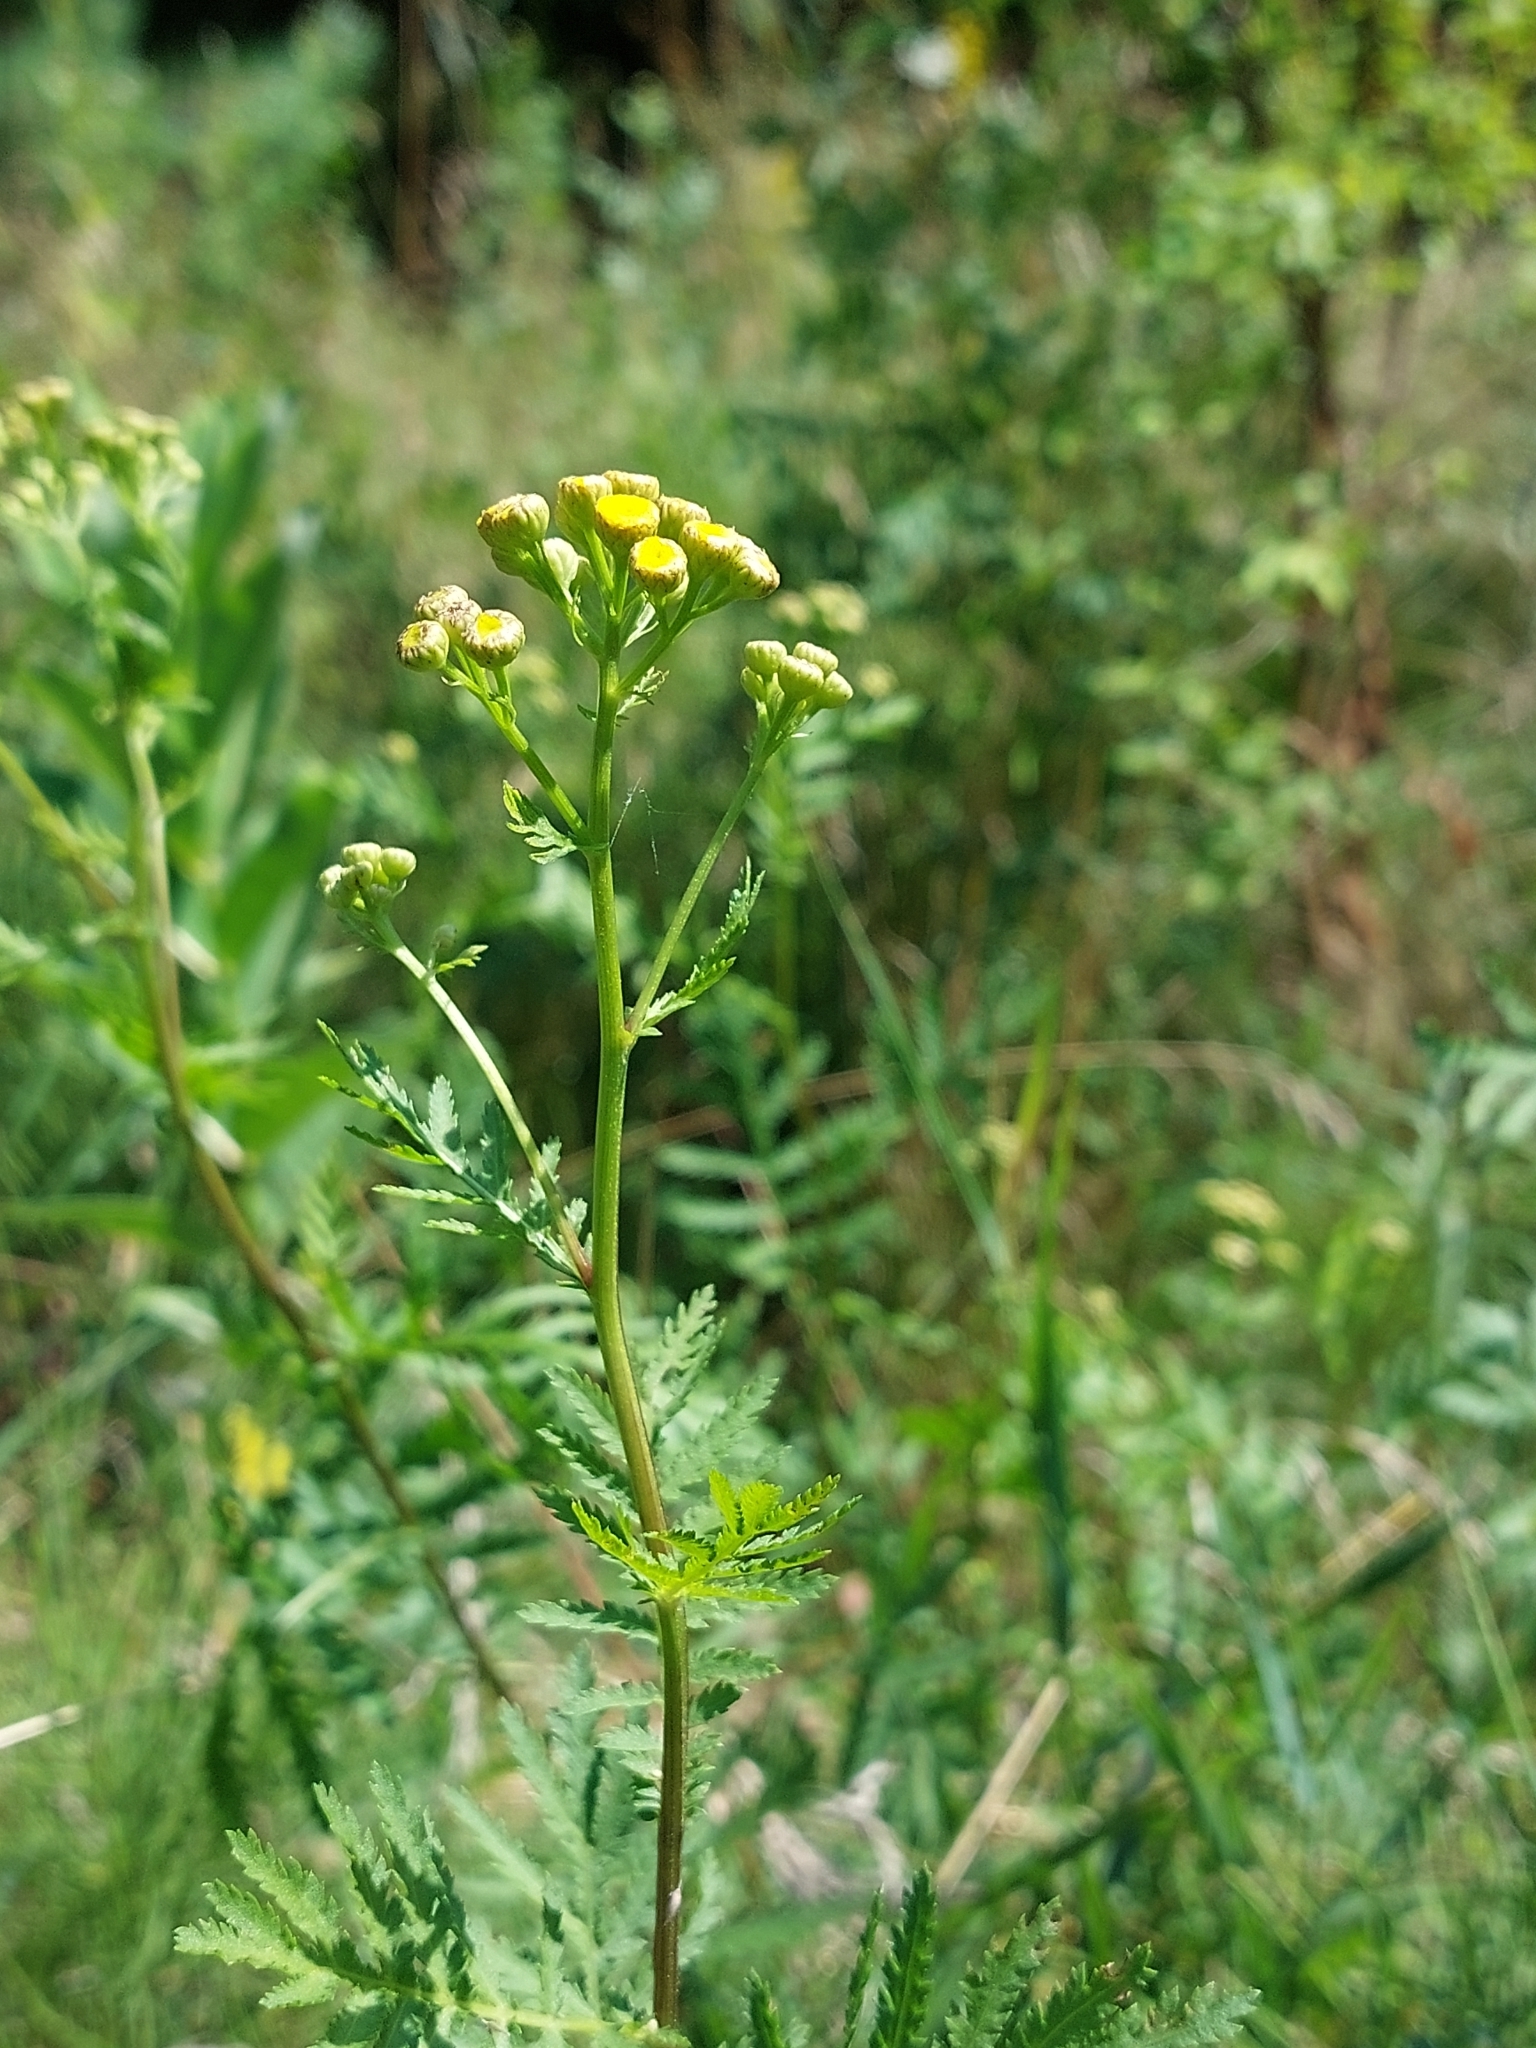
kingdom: Plantae
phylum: Tracheophyta
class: Magnoliopsida
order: Asterales
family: Asteraceae
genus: Tanacetum
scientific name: Tanacetum vulgare
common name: Common tansy
